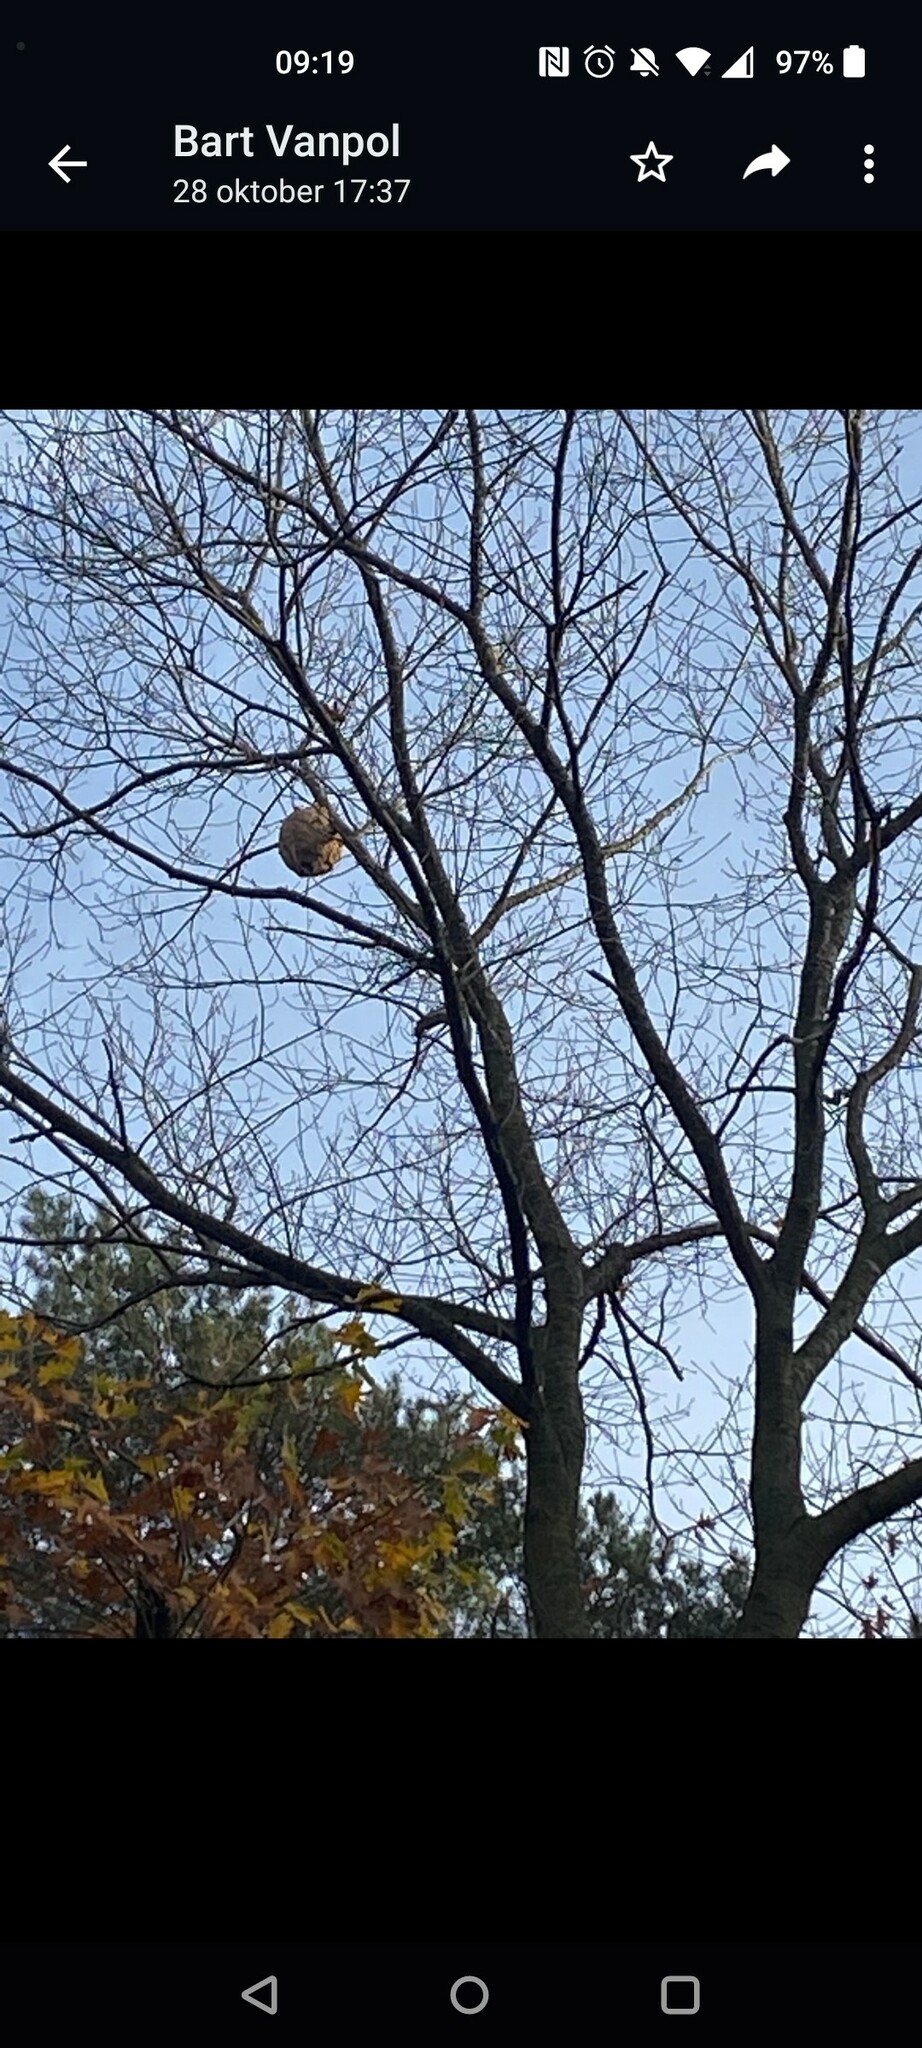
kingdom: Animalia
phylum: Arthropoda
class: Insecta
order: Hymenoptera
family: Vespidae
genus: Vespa
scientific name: Vespa velutina
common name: Asian hornet
